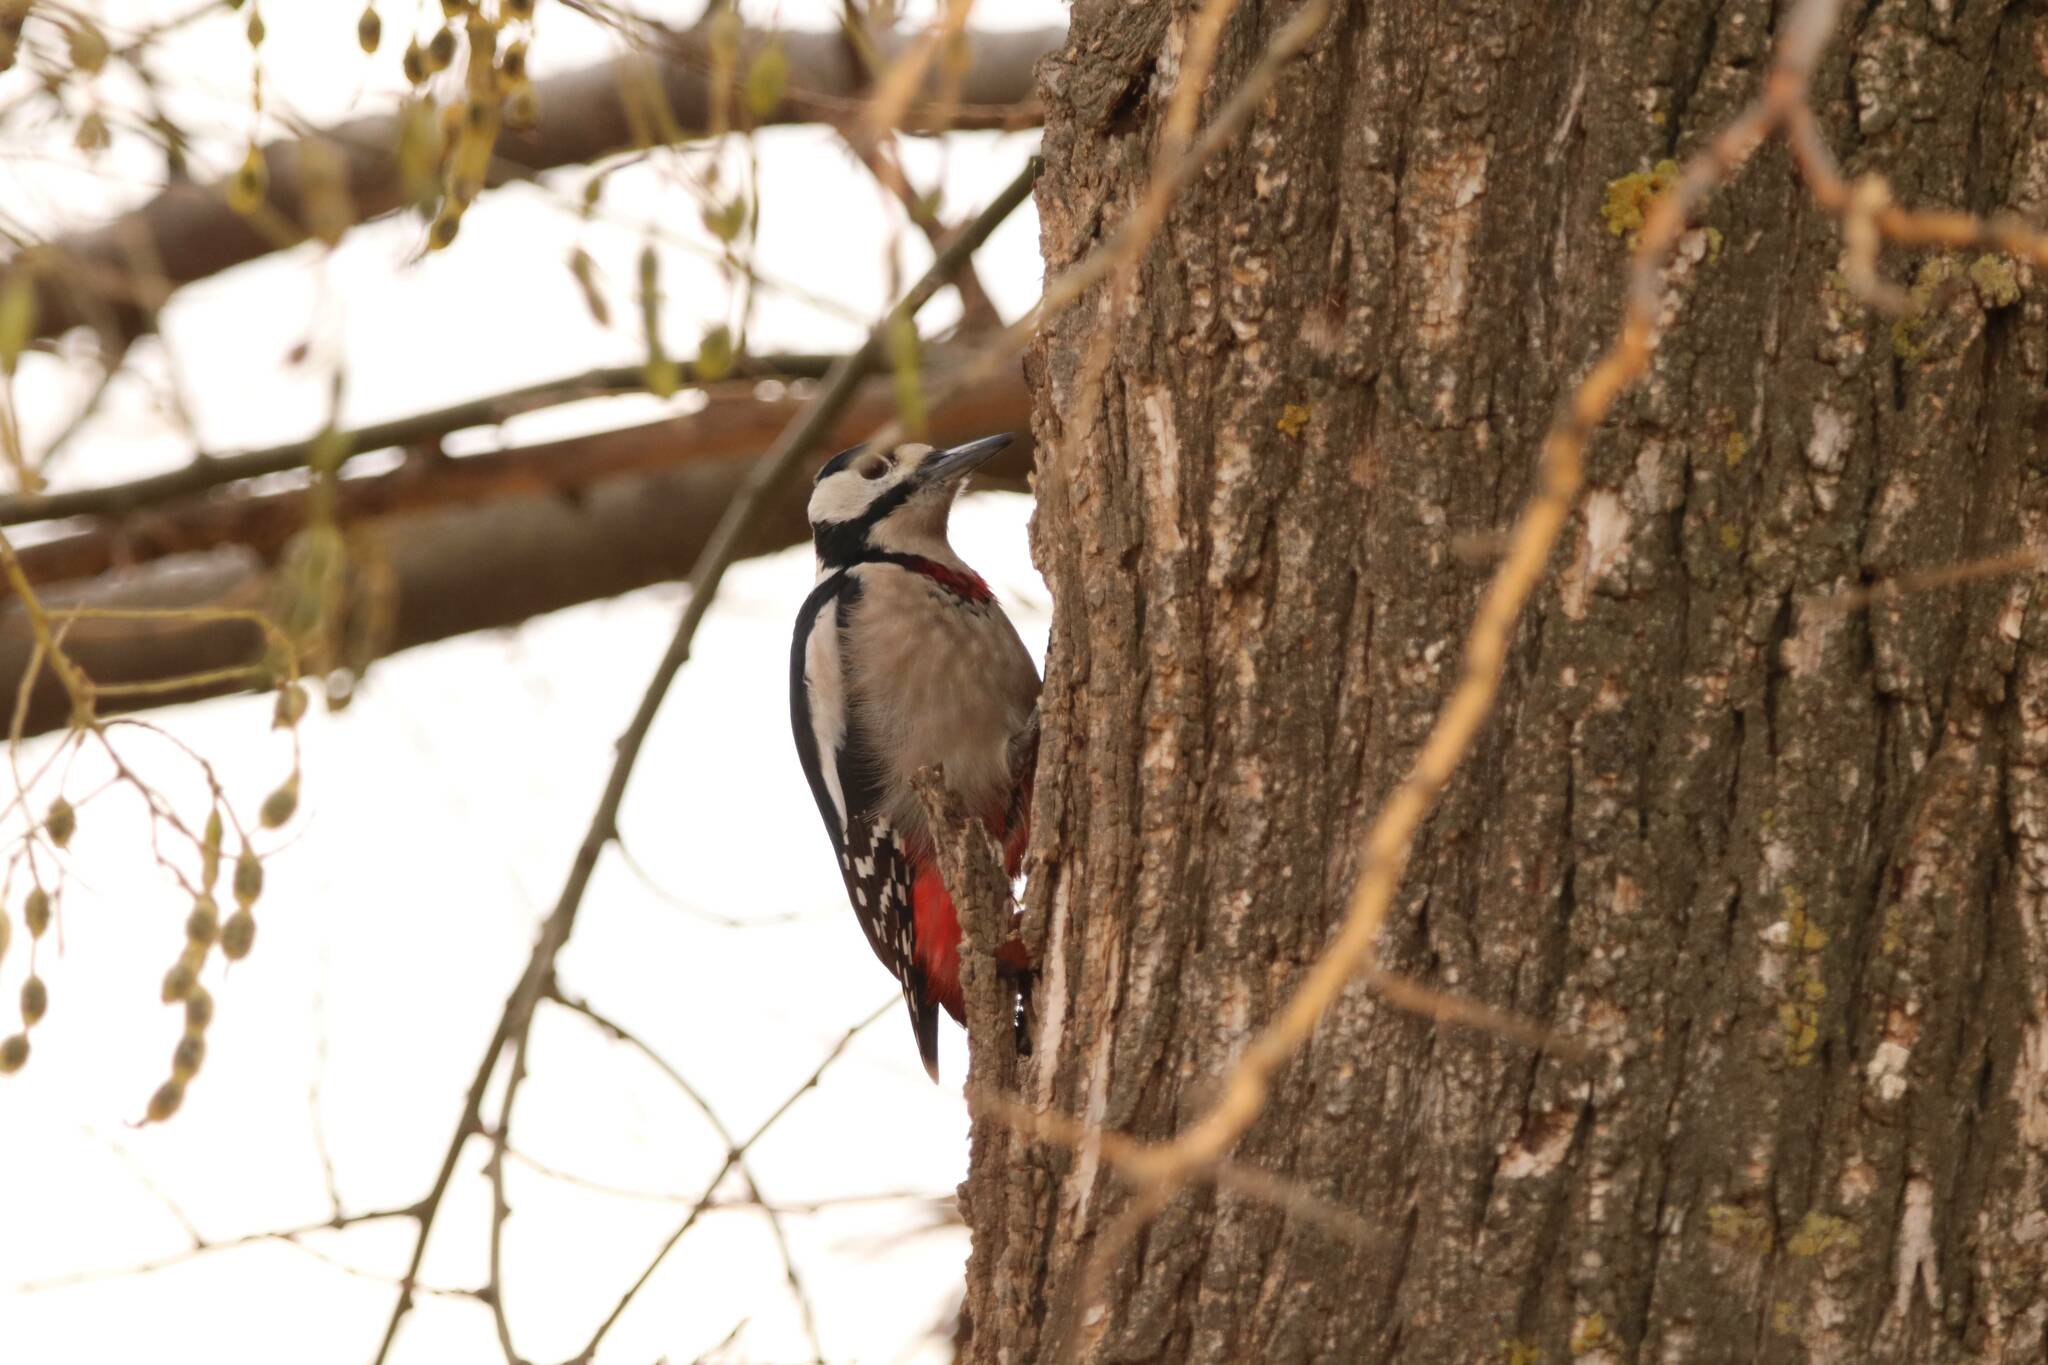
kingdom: Animalia
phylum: Chordata
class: Aves
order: Piciformes
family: Picidae
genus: Dendrocopos
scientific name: Dendrocopos major
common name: Great spotted woodpecker
